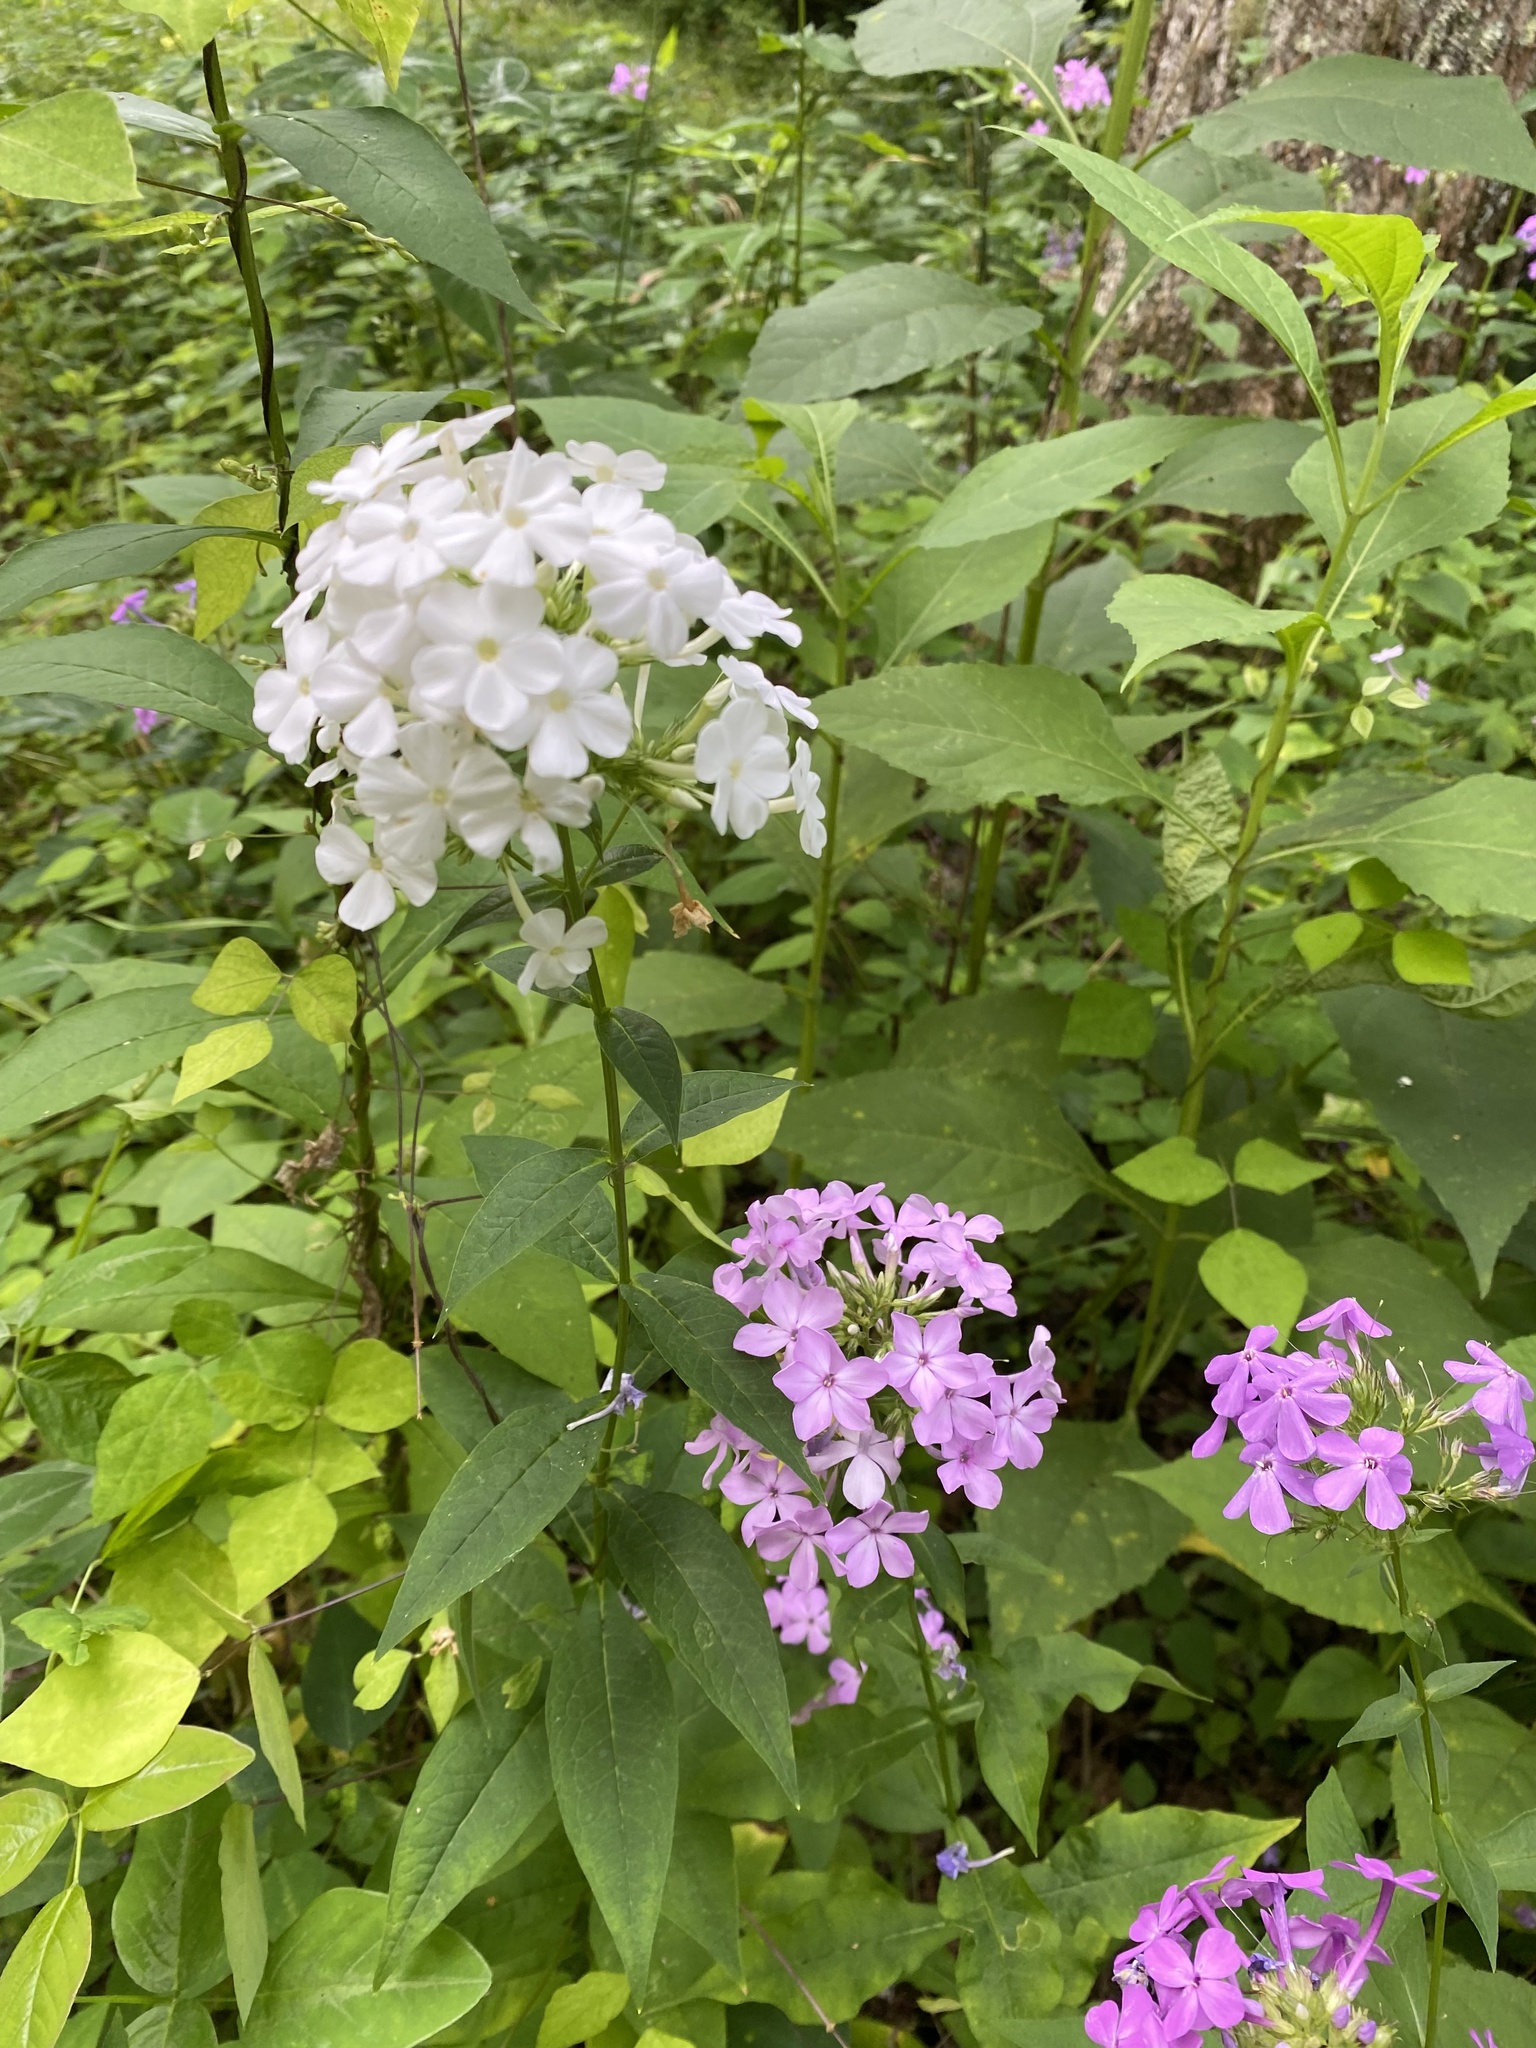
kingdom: Plantae
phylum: Tracheophyta
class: Magnoliopsida
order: Ericales
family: Polemoniaceae
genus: Phlox
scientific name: Phlox paniculata
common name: Fall phlox
